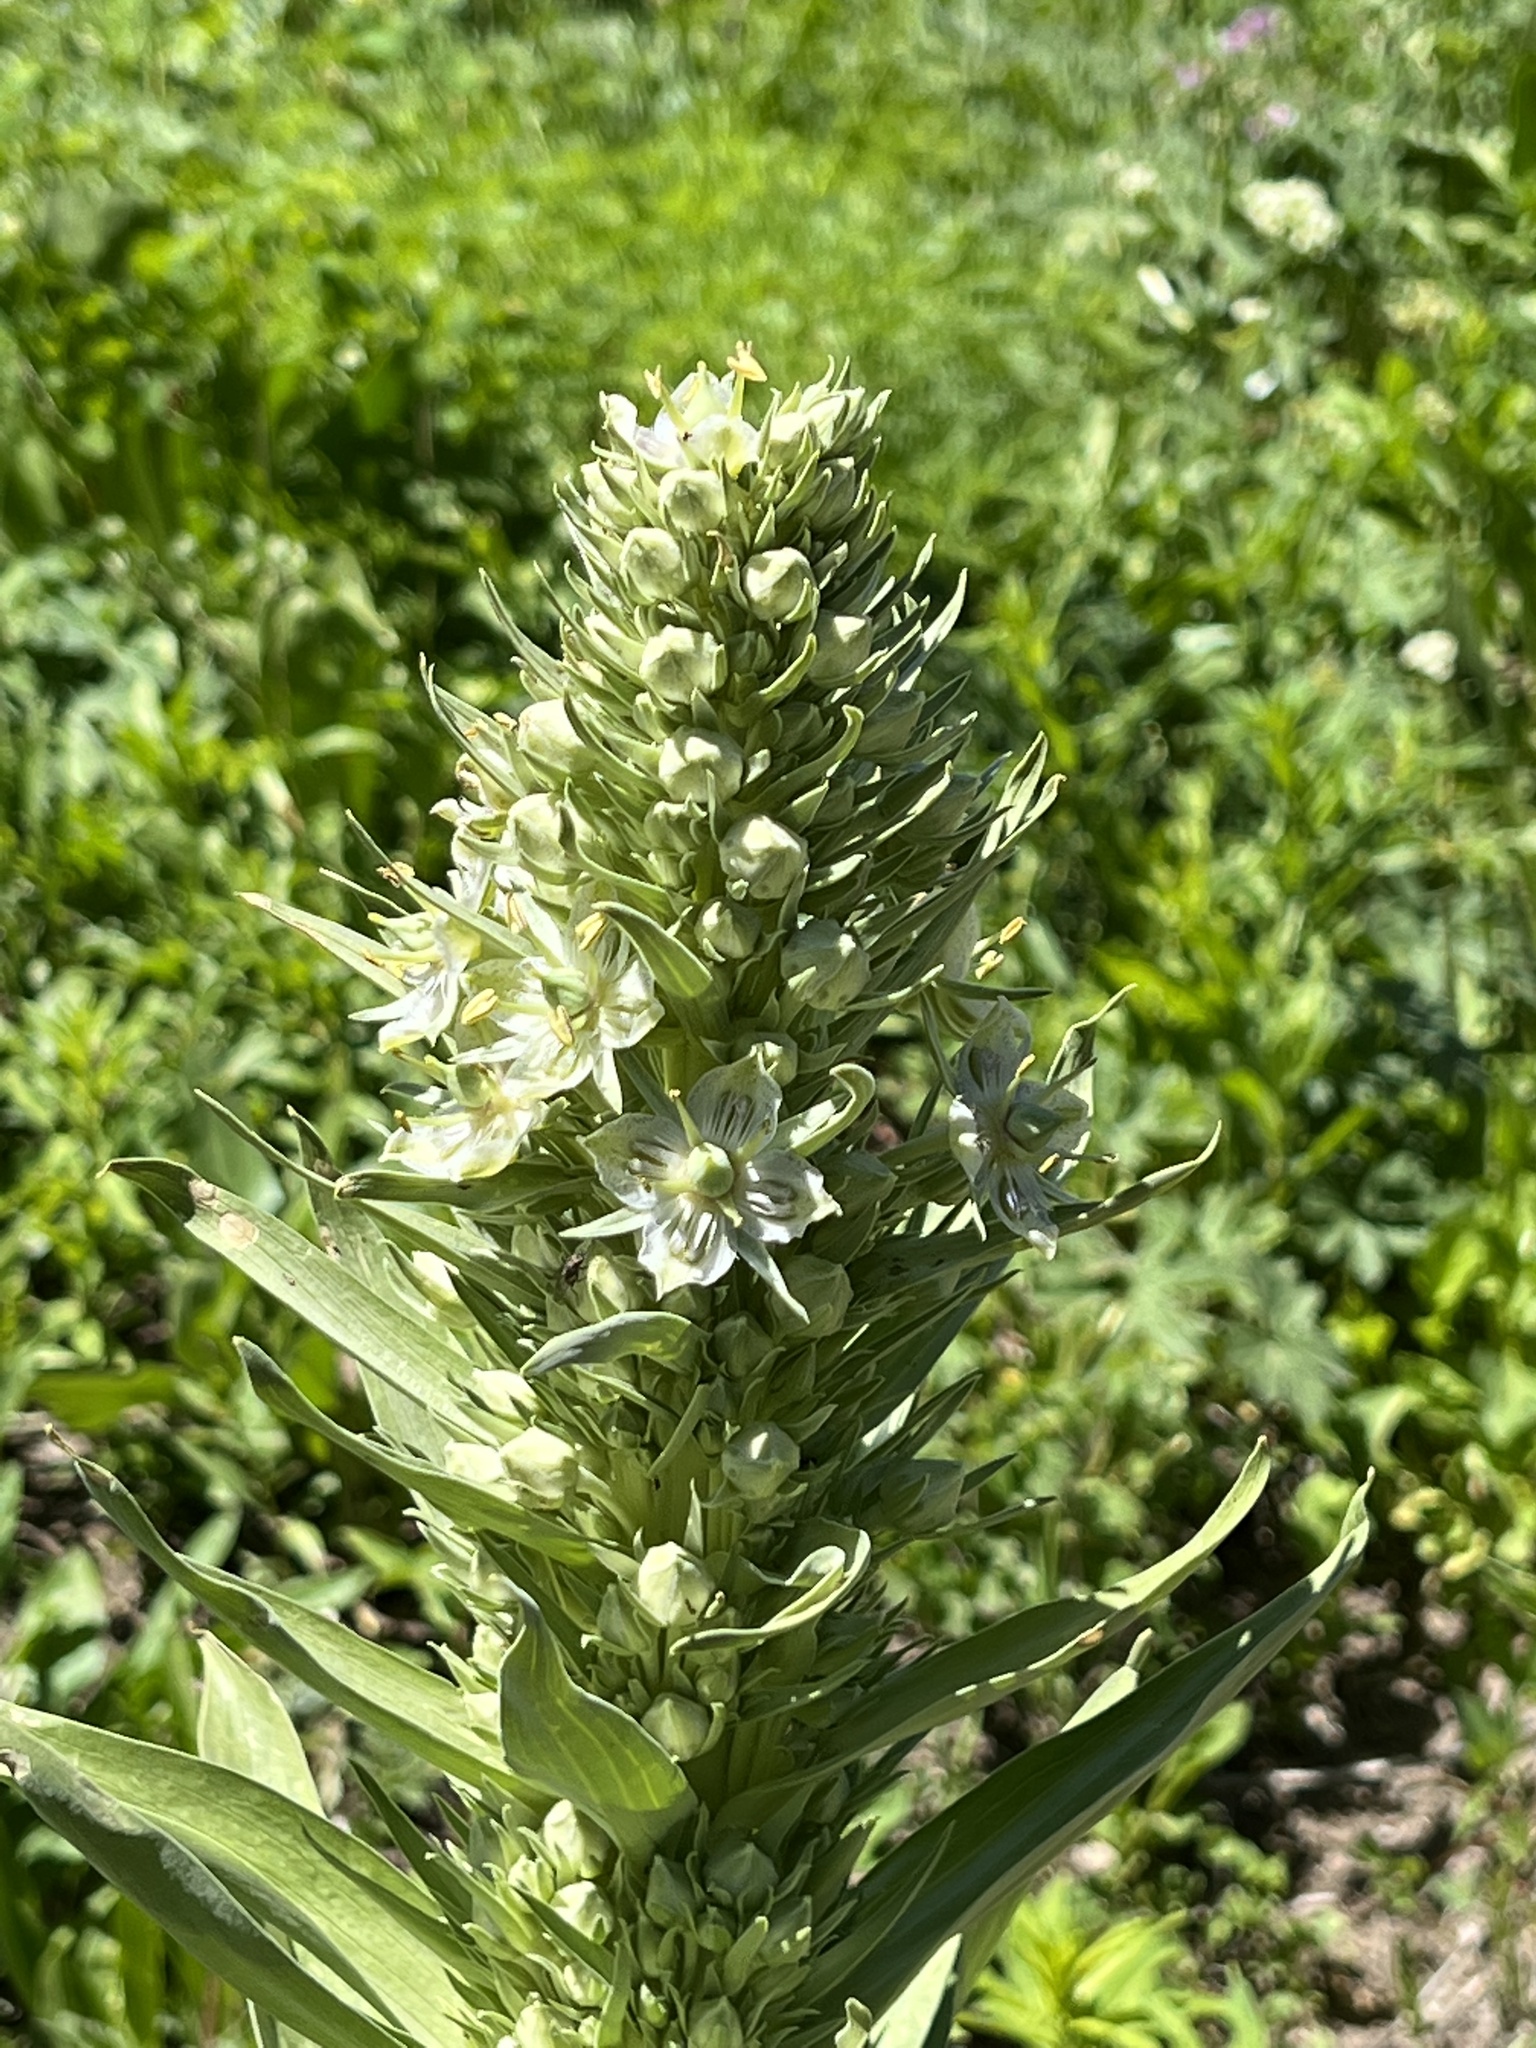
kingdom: Plantae
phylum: Tracheophyta
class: Magnoliopsida
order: Gentianales
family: Gentianaceae
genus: Frasera
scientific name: Frasera speciosa
